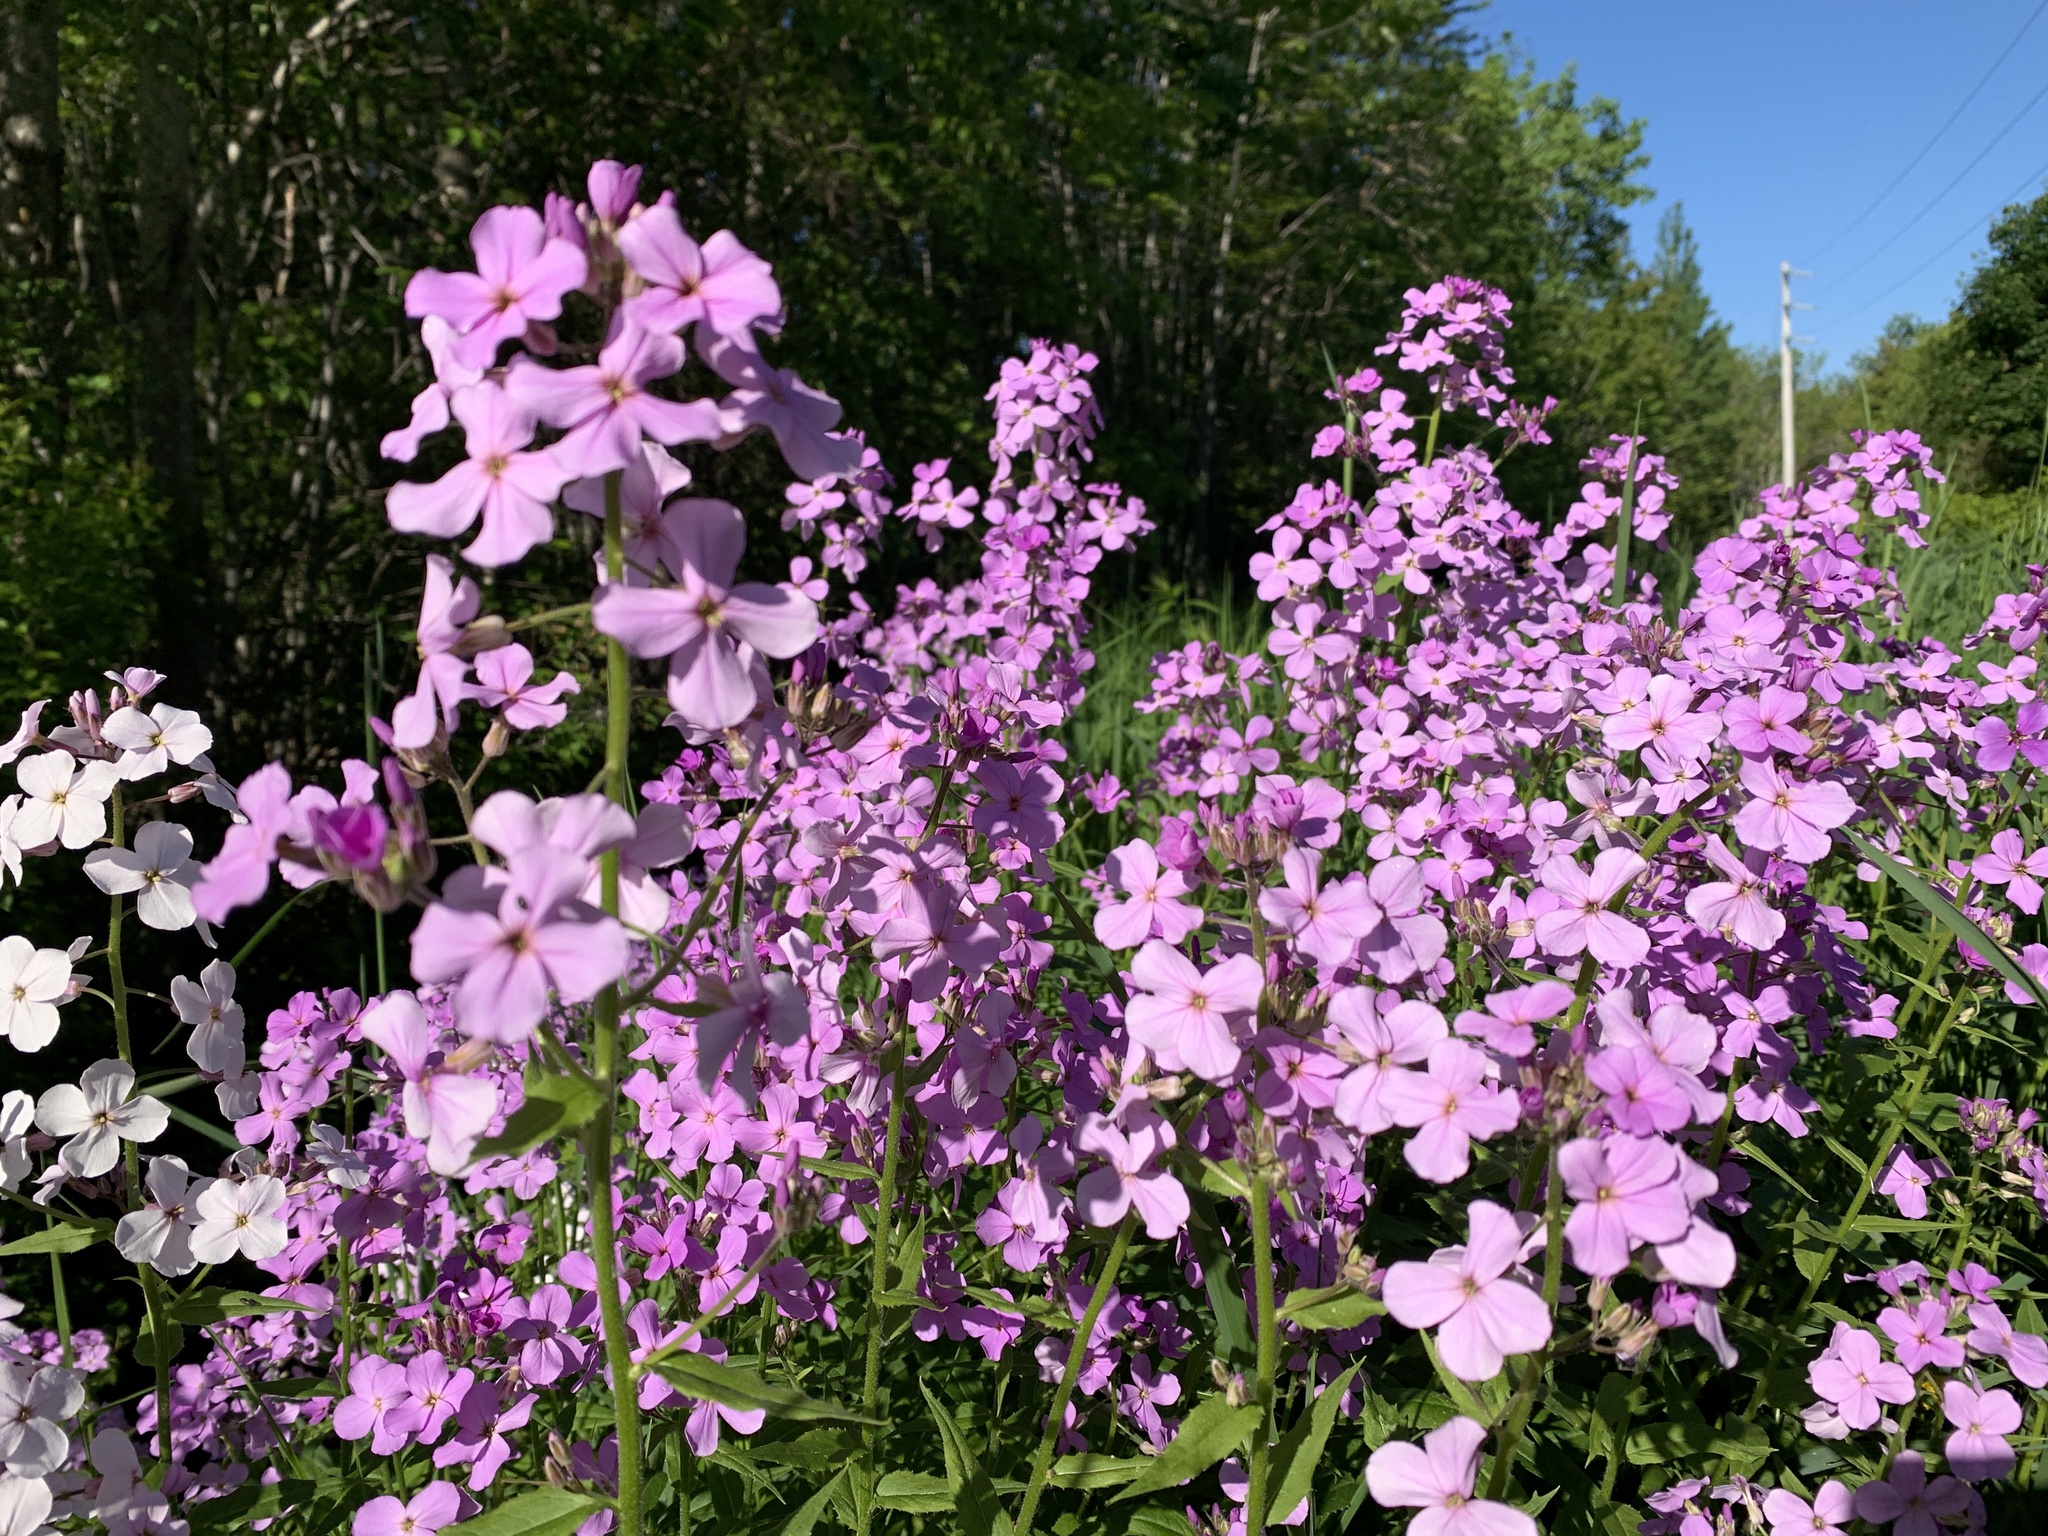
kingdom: Plantae
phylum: Tracheophyta
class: Magnoliopsida
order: Brassicales
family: Brassicaceae
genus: Hesperis
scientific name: Hesperis matronalis
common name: Dame's-violet
